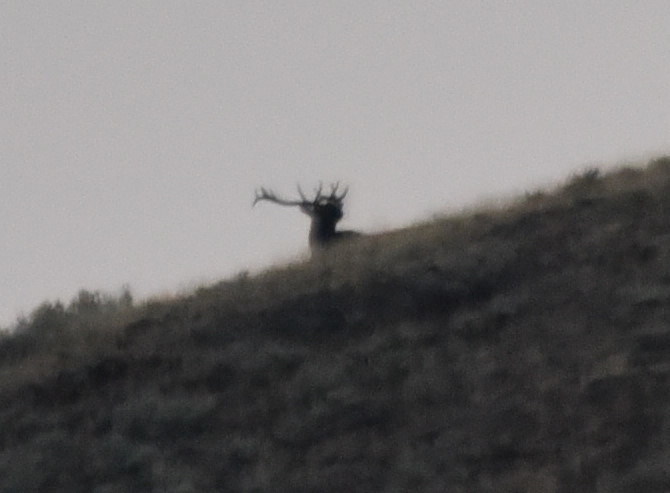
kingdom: Animalia
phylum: Chordata
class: Mammalia
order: Artiodactyla
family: Cervidae
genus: Cervus
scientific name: Cervus elaphus
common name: Red deer
